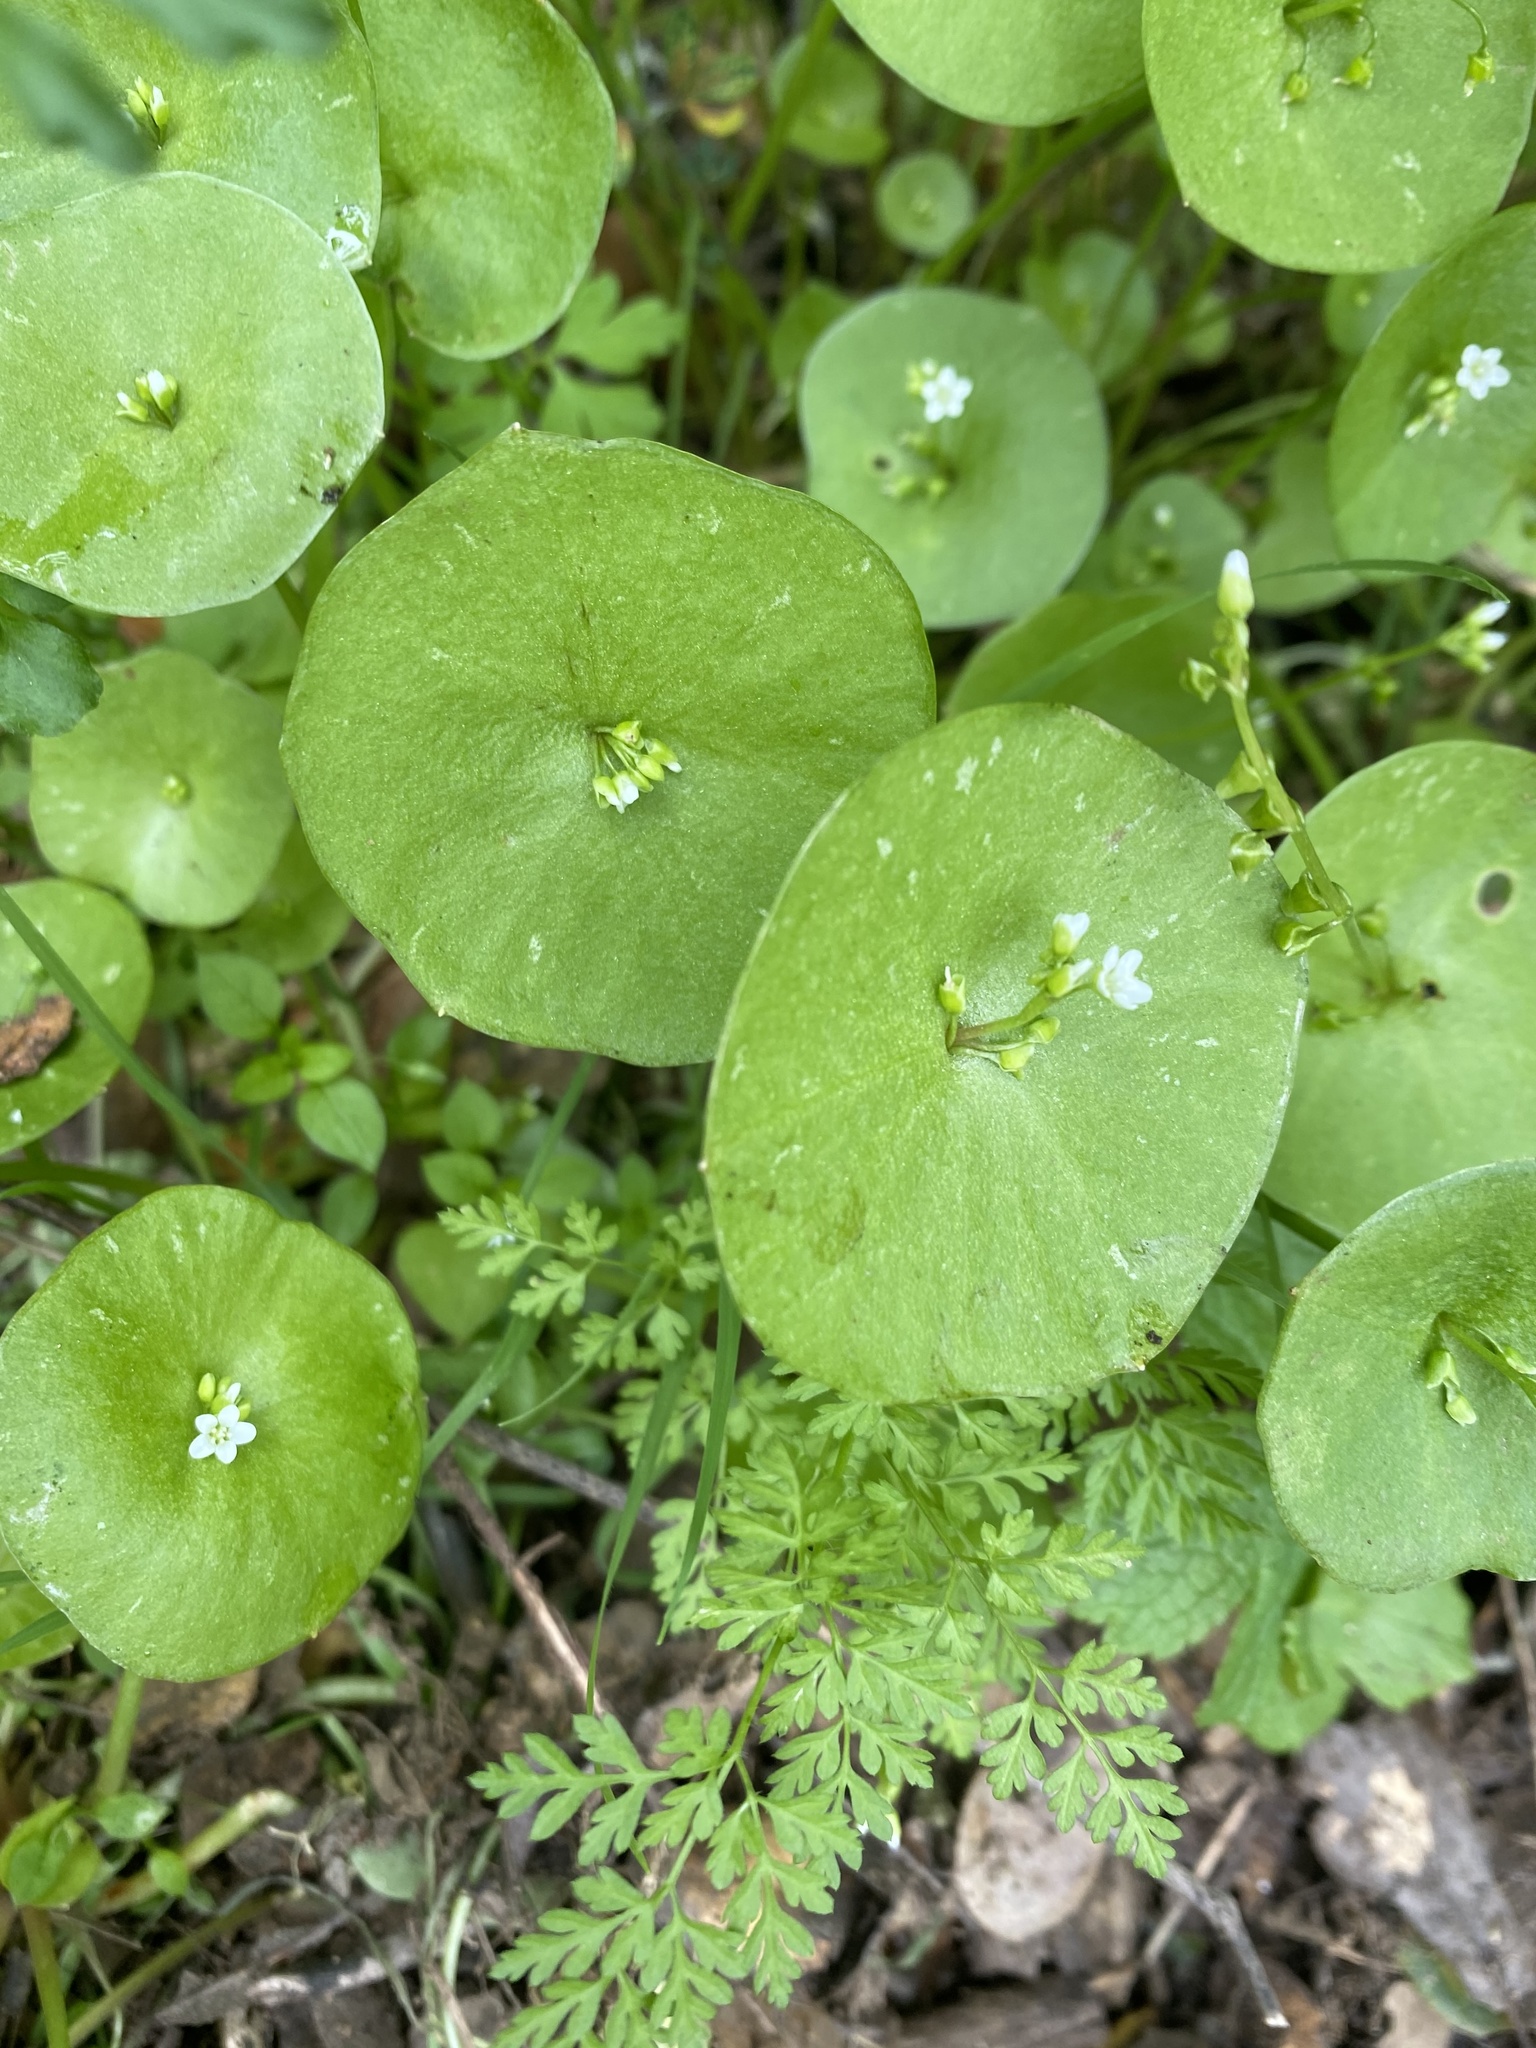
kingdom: Plantae
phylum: Tracheophyta
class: Magnoliopsida
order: Caryophyllales
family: Montiaceae
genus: Claytonia
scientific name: Claytonia perfoliata
